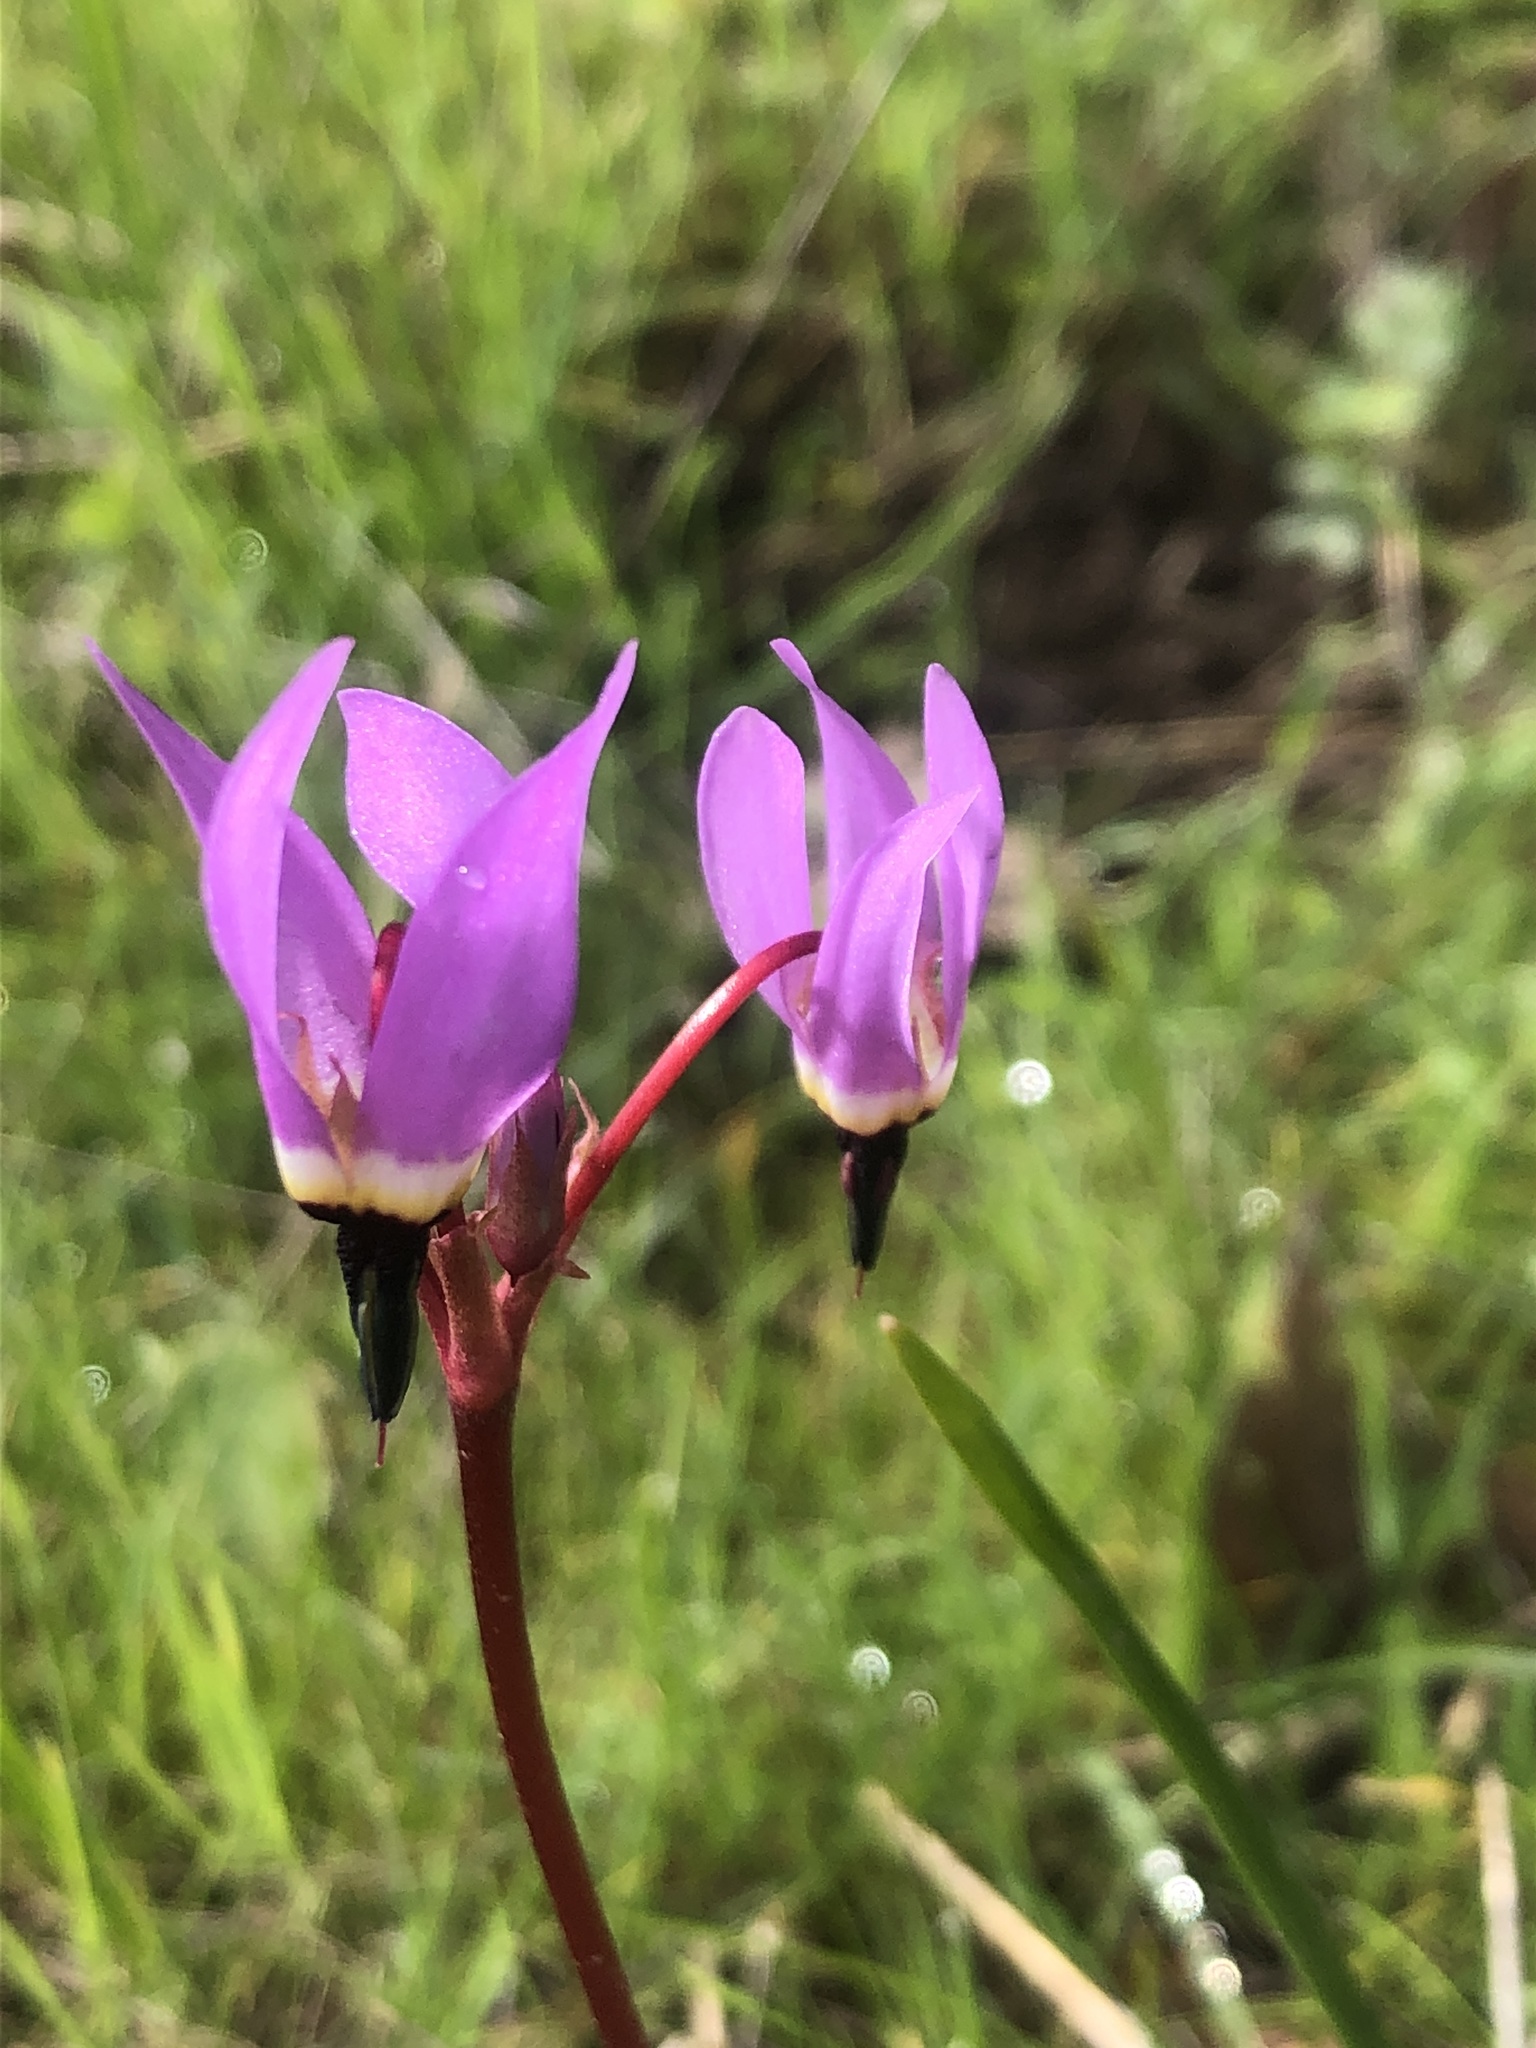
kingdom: Plantae
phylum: Tracheophyta
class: Magnoliopsida
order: Ericales
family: Primulaceae
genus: Dodecatheon
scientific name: Dodecatheon hendersonii
